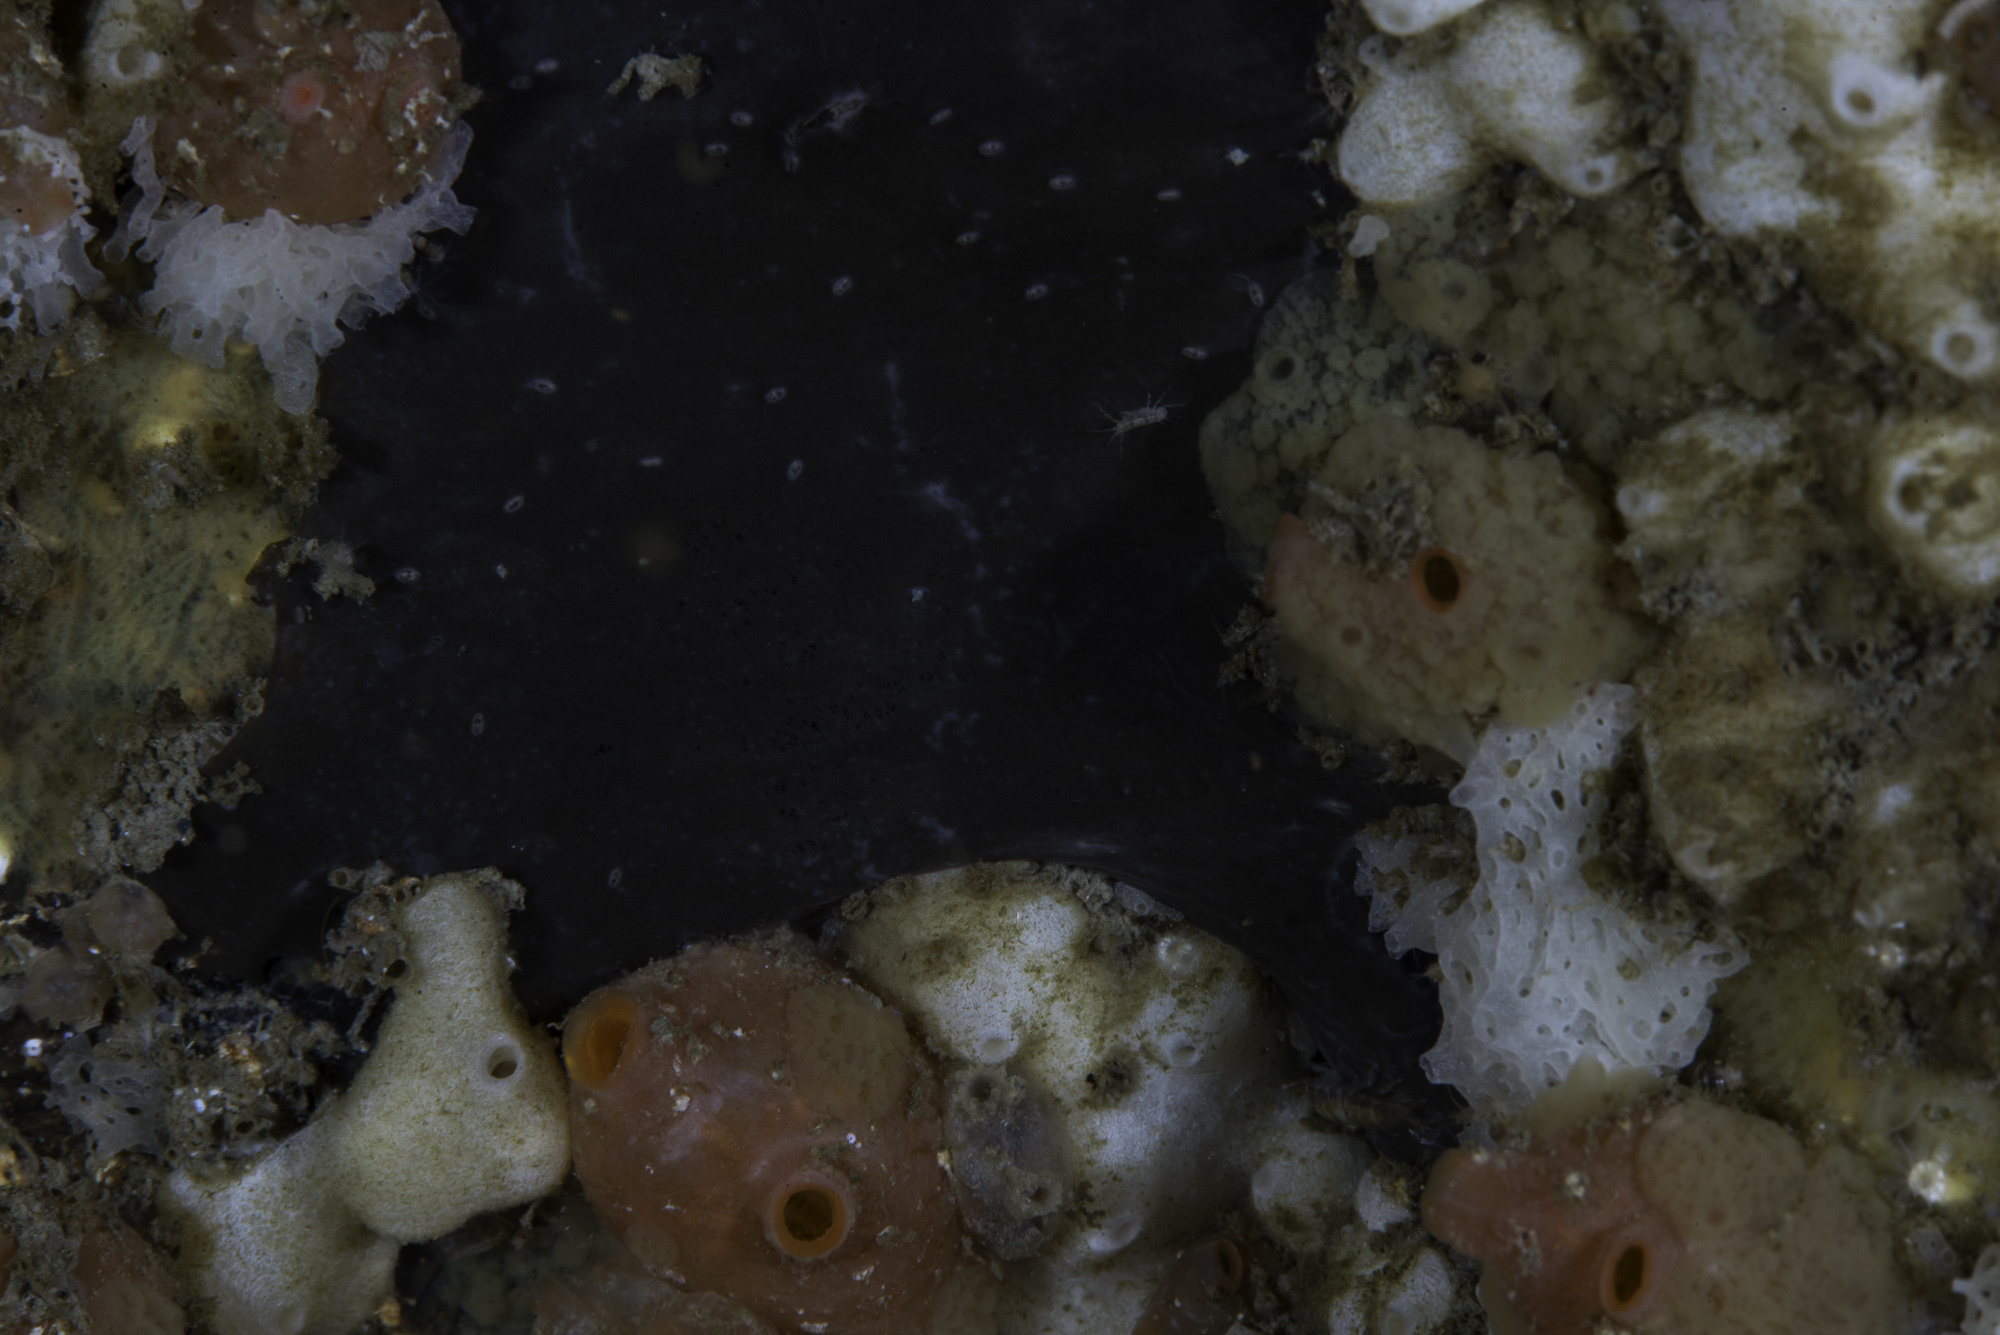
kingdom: Animalia
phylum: Porifera
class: Demospongiae
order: Tetractinellida
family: Ancorinidae
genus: Dercitus
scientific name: Dercitus bucklandi
